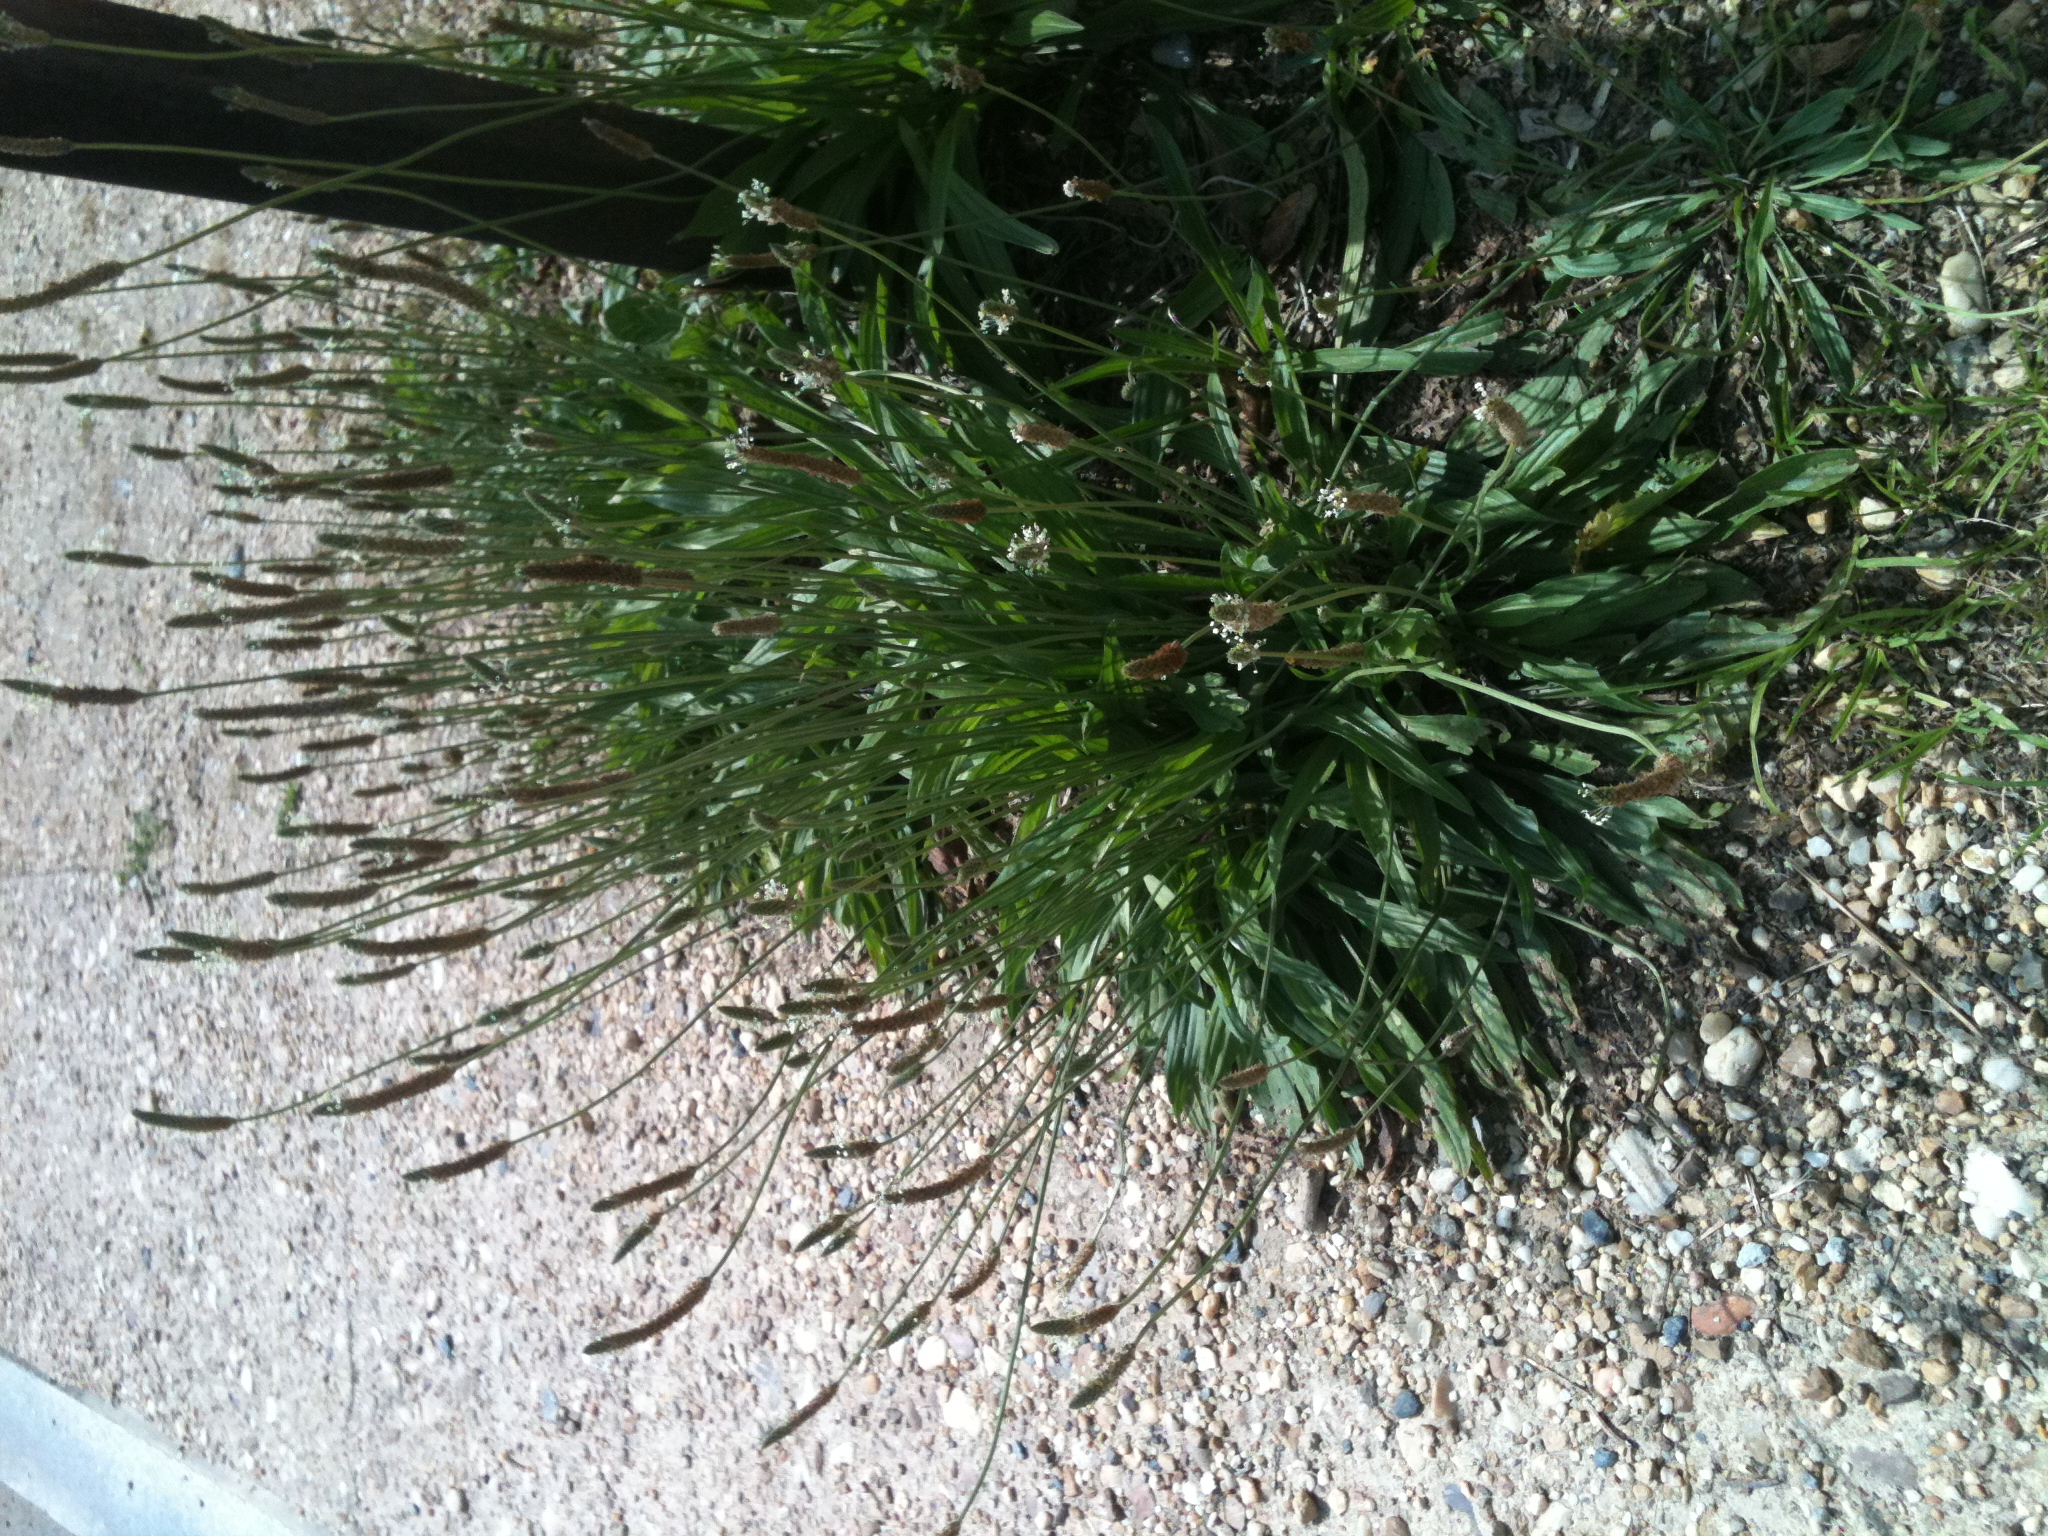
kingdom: Plantae
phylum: Tracheophyta
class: Magnoliopsida
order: Lamiales
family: Plantaginaceae
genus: Plantago
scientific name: Plantago lanceolata
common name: Ribwort plantain
